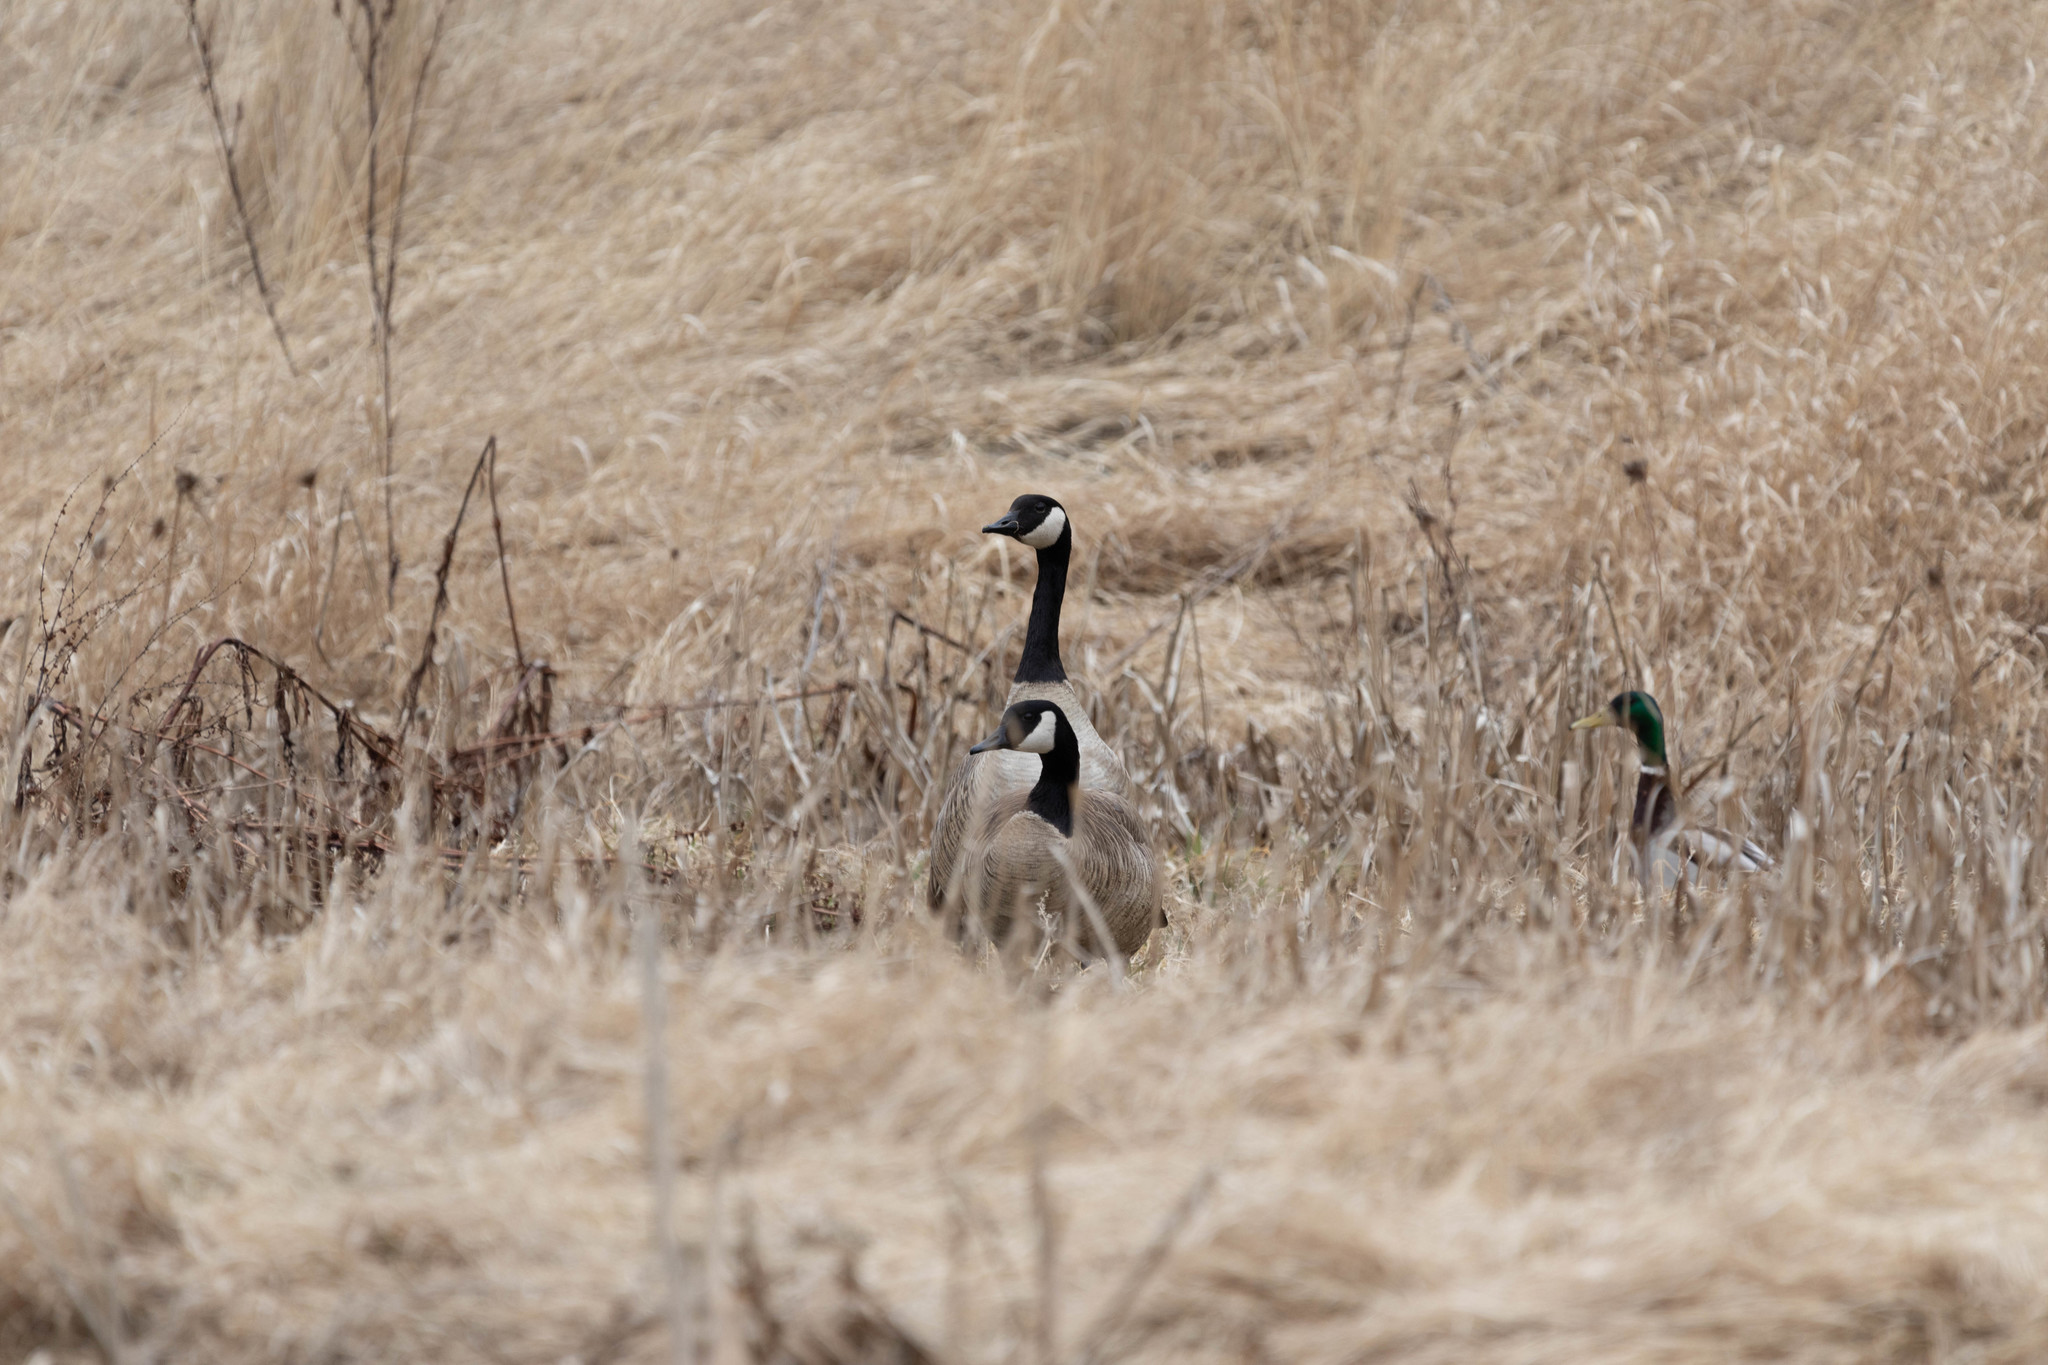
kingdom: Animalia
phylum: Chordata
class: Aves
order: Anseriformes
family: Anatidae
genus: Branta
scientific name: Branta canadensis
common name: Canada goose
